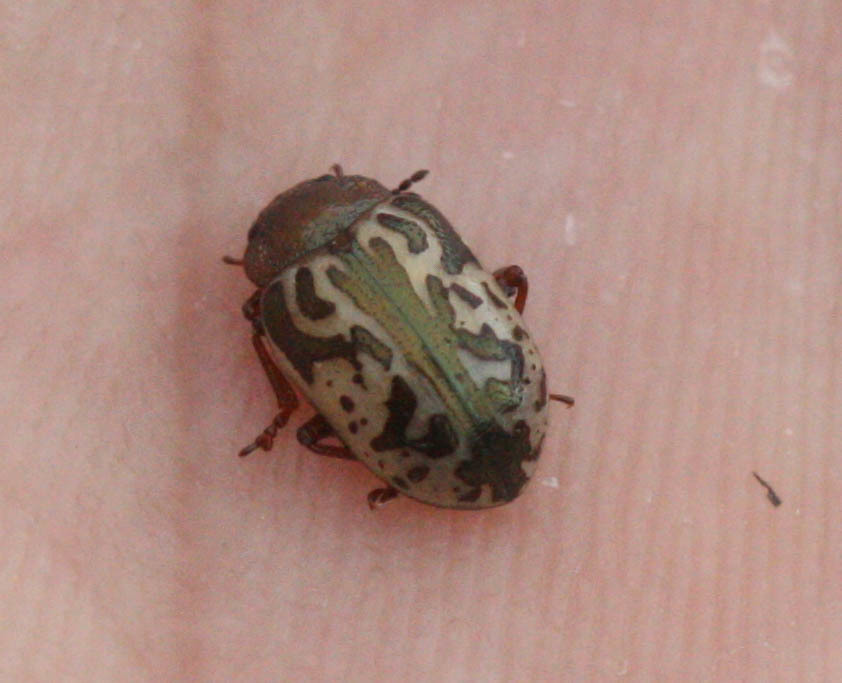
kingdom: Animalia
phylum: Arthropoda
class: Insecta
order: Coleoptera
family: Chrysomelidae
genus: Calligrapha
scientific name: Calligrapha
